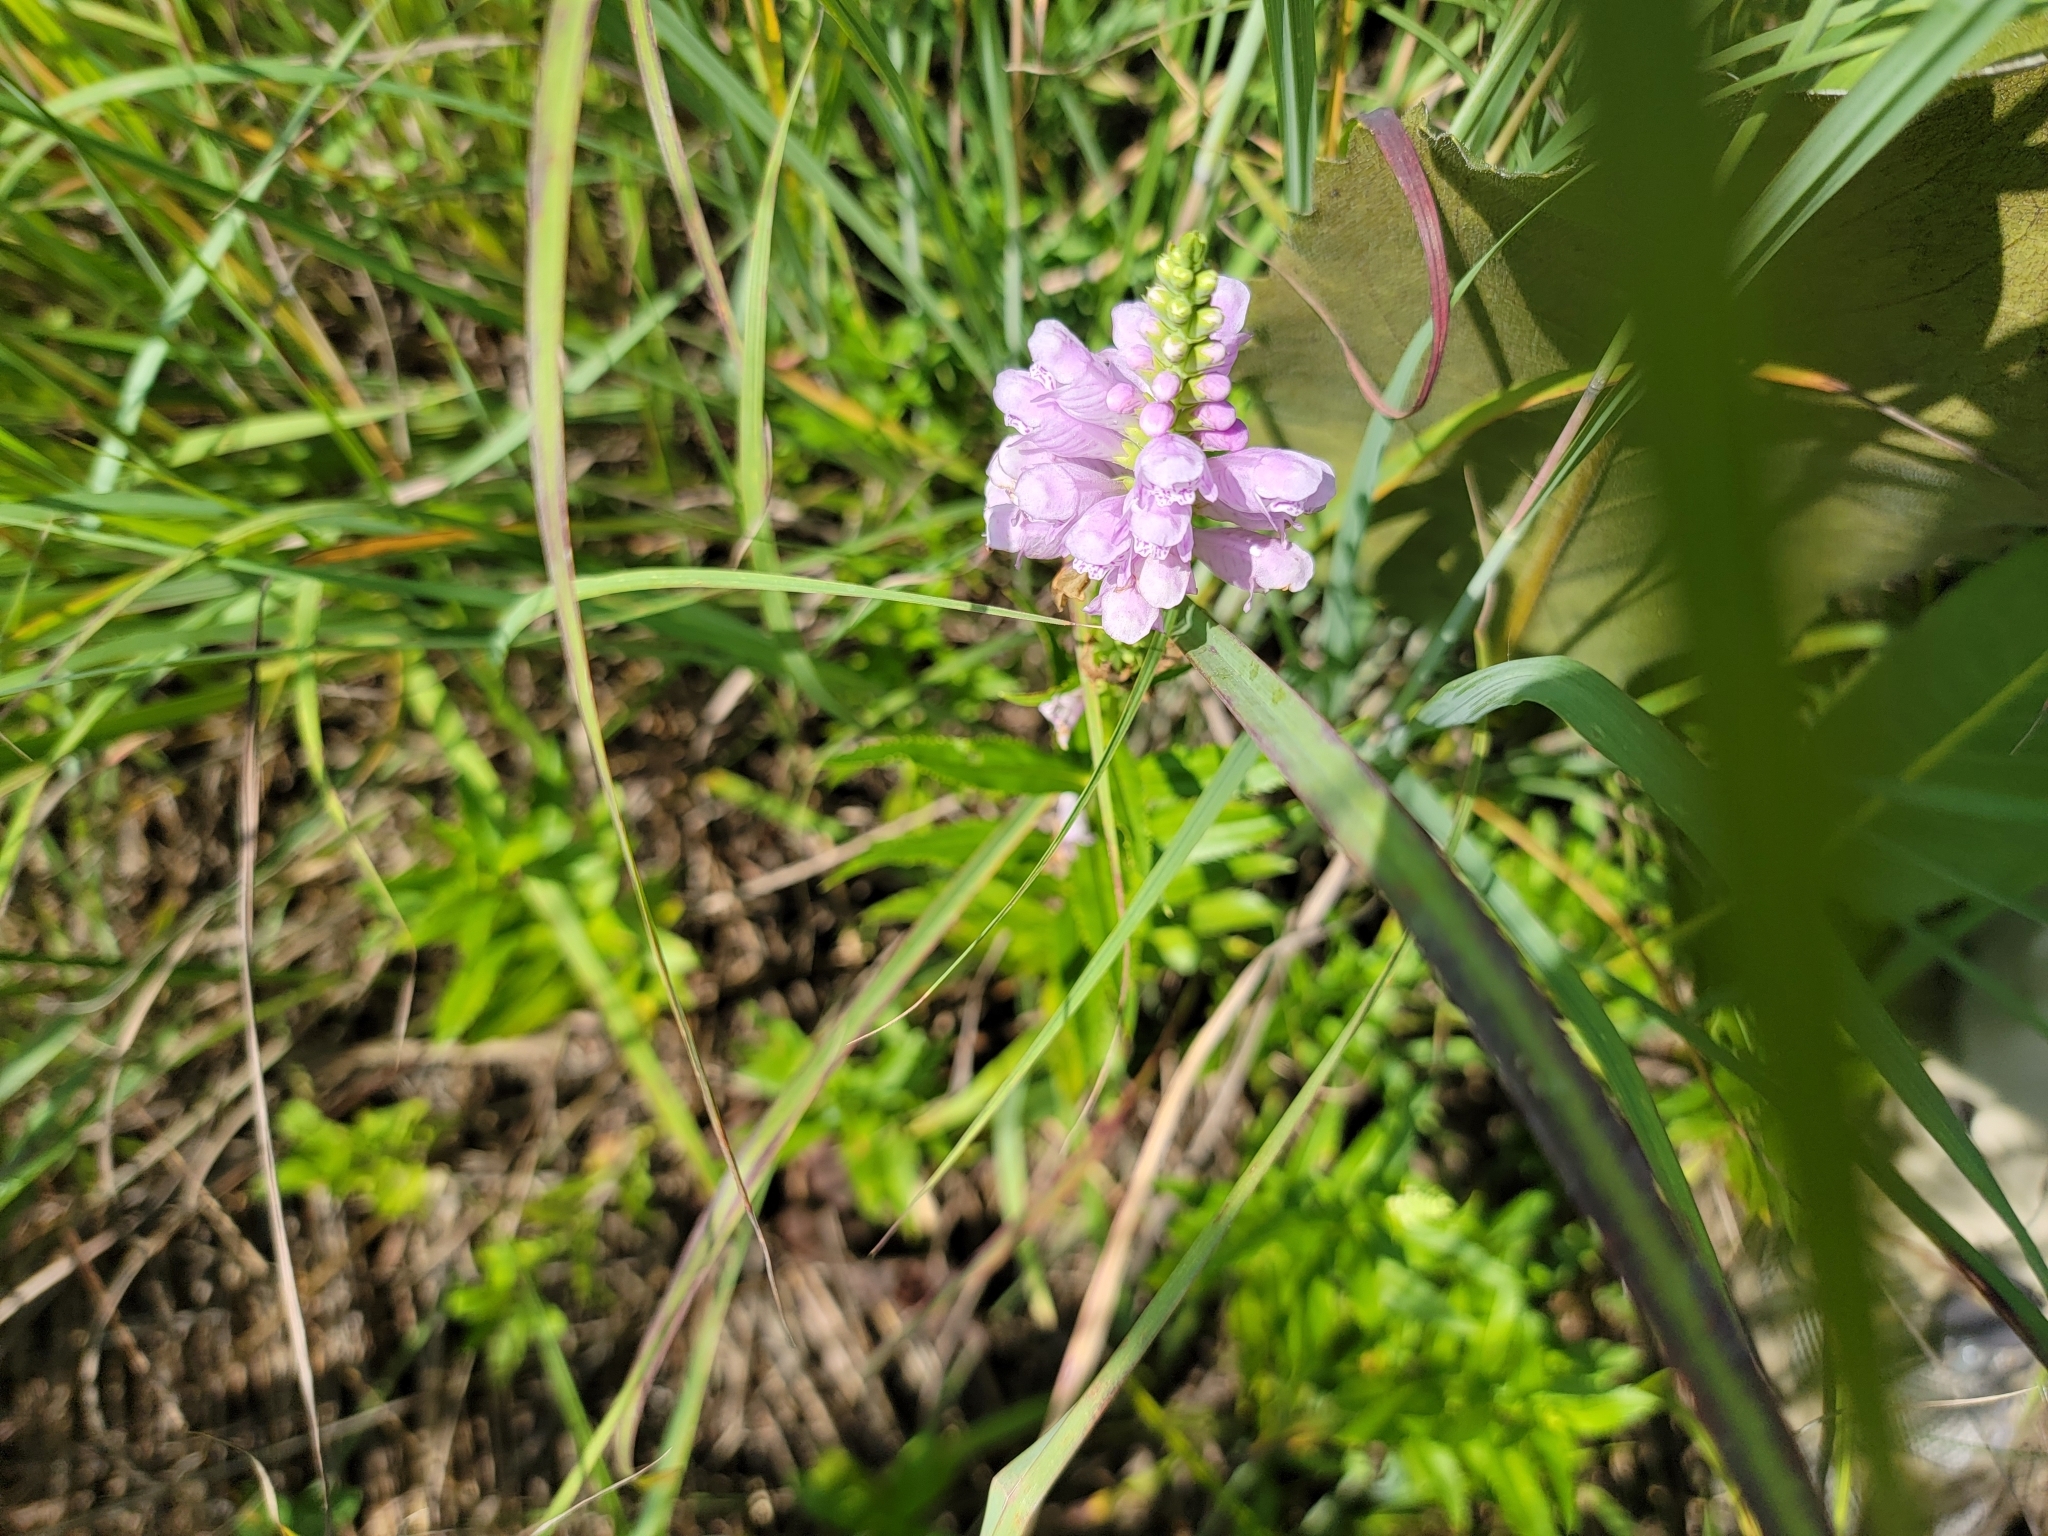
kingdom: Plantae
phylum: Tracheophyta
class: Magnoliopsida
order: Lamiales
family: Lamiaceae
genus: Physostegia
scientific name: Physostegia virginiana
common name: Obedient-plant
